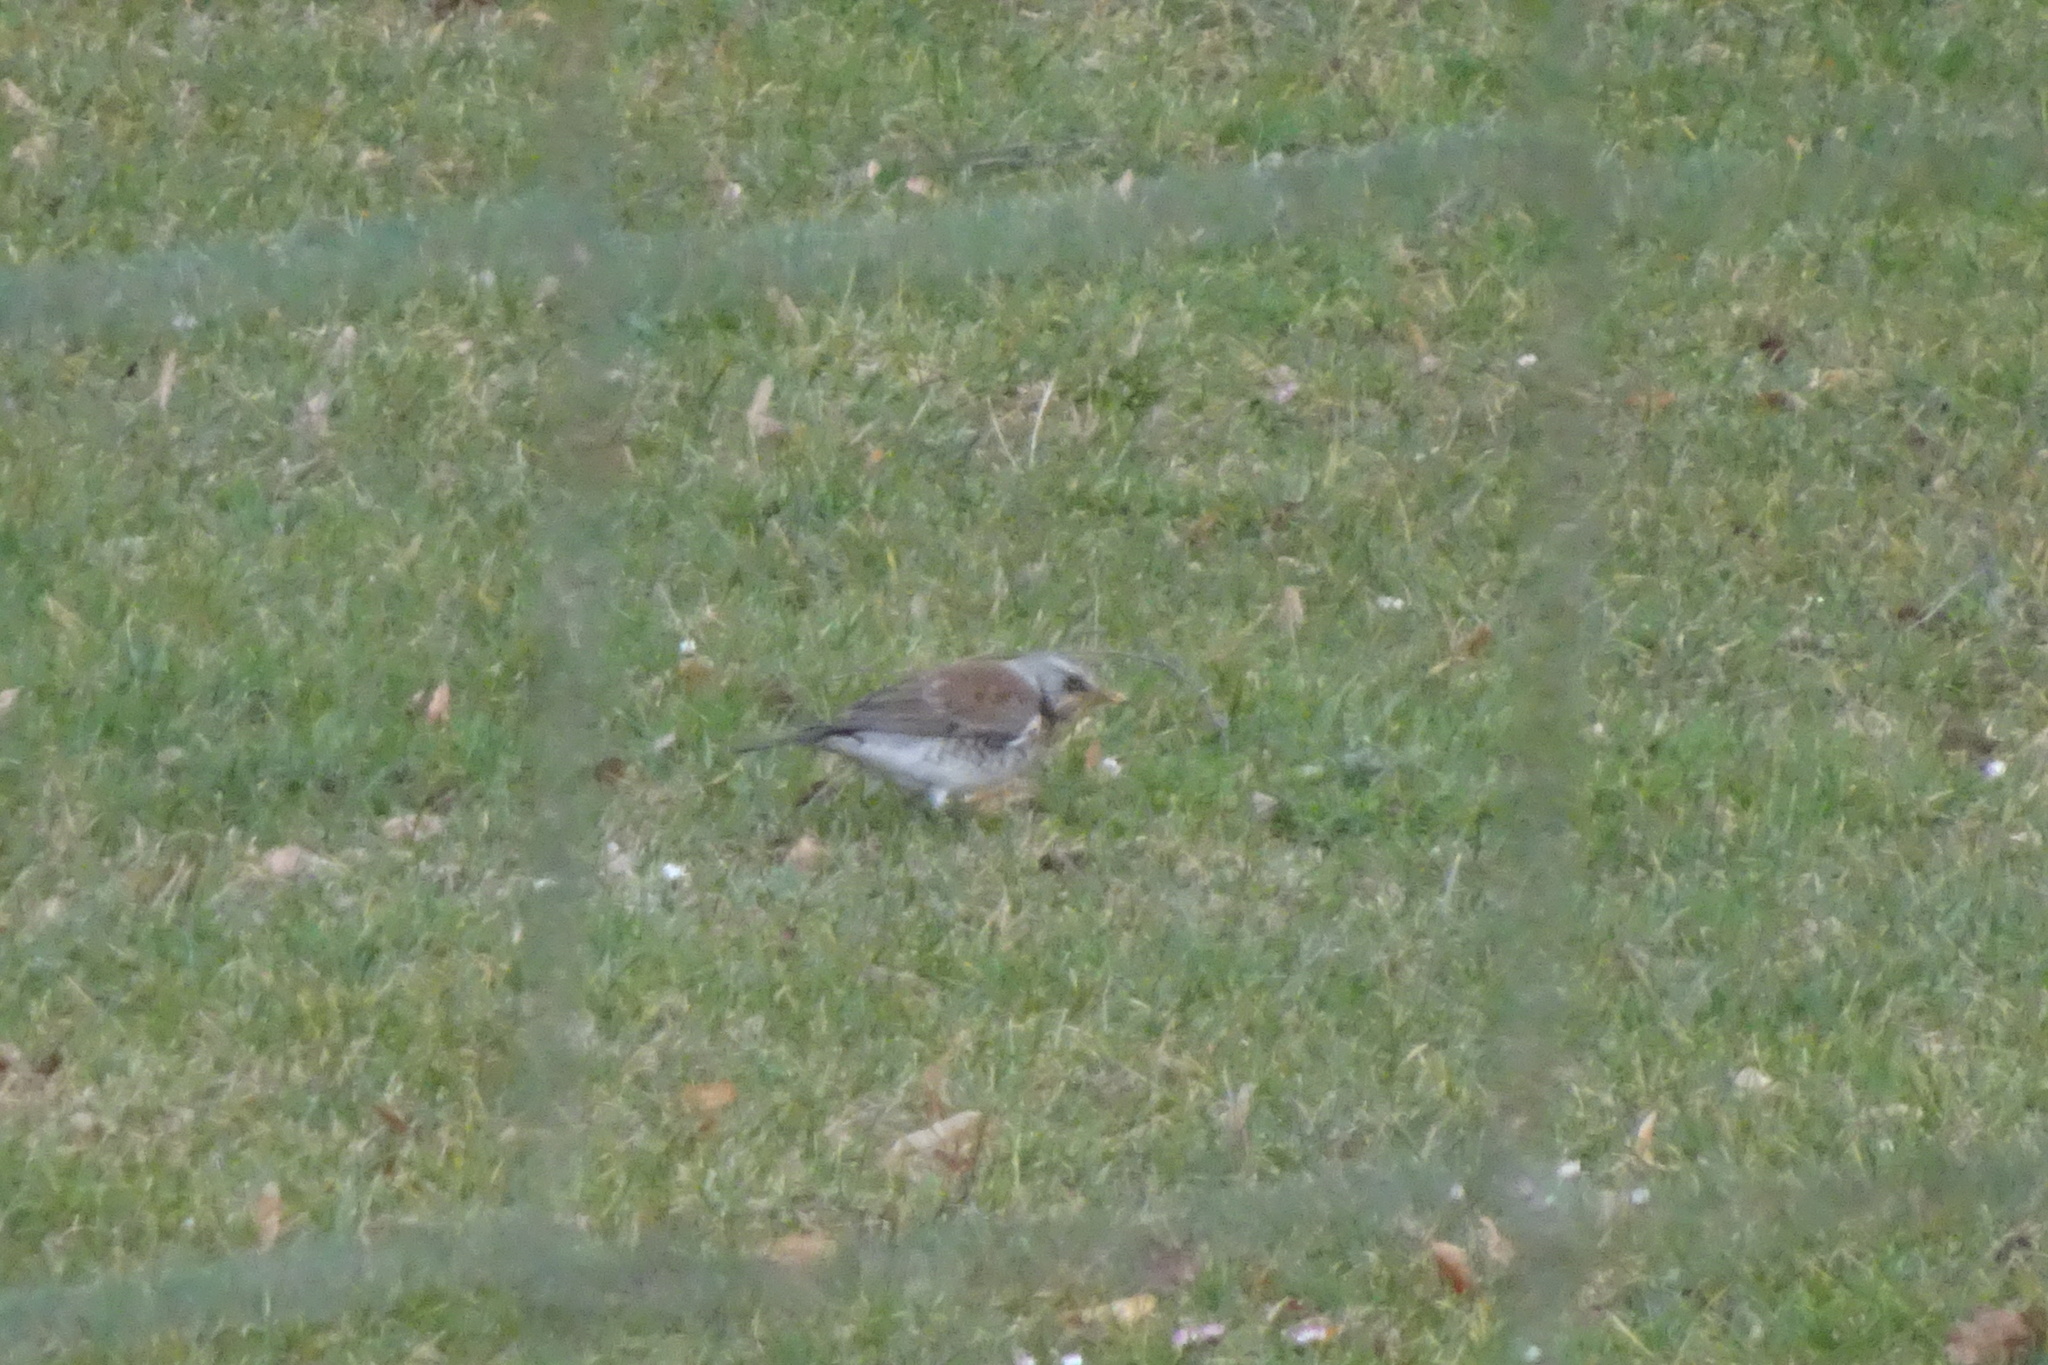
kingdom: Animalia
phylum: Chordata
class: Aves
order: Passeriformes
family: Turdidae
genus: Turdus
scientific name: Turdus pilaris
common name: Fieldfare
